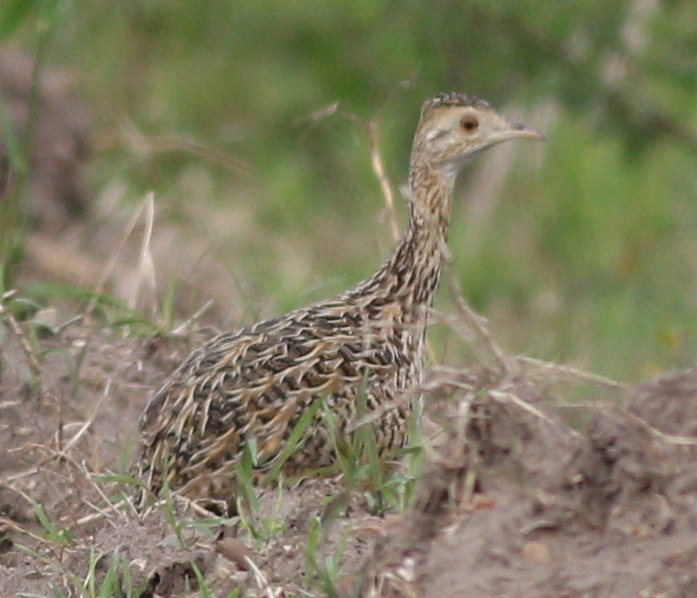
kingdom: Animalia
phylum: Chordata
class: Aves
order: Tinamiformes
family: Tinamidae
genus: Nothura
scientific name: Nothura maculosa
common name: Spotted nothura
